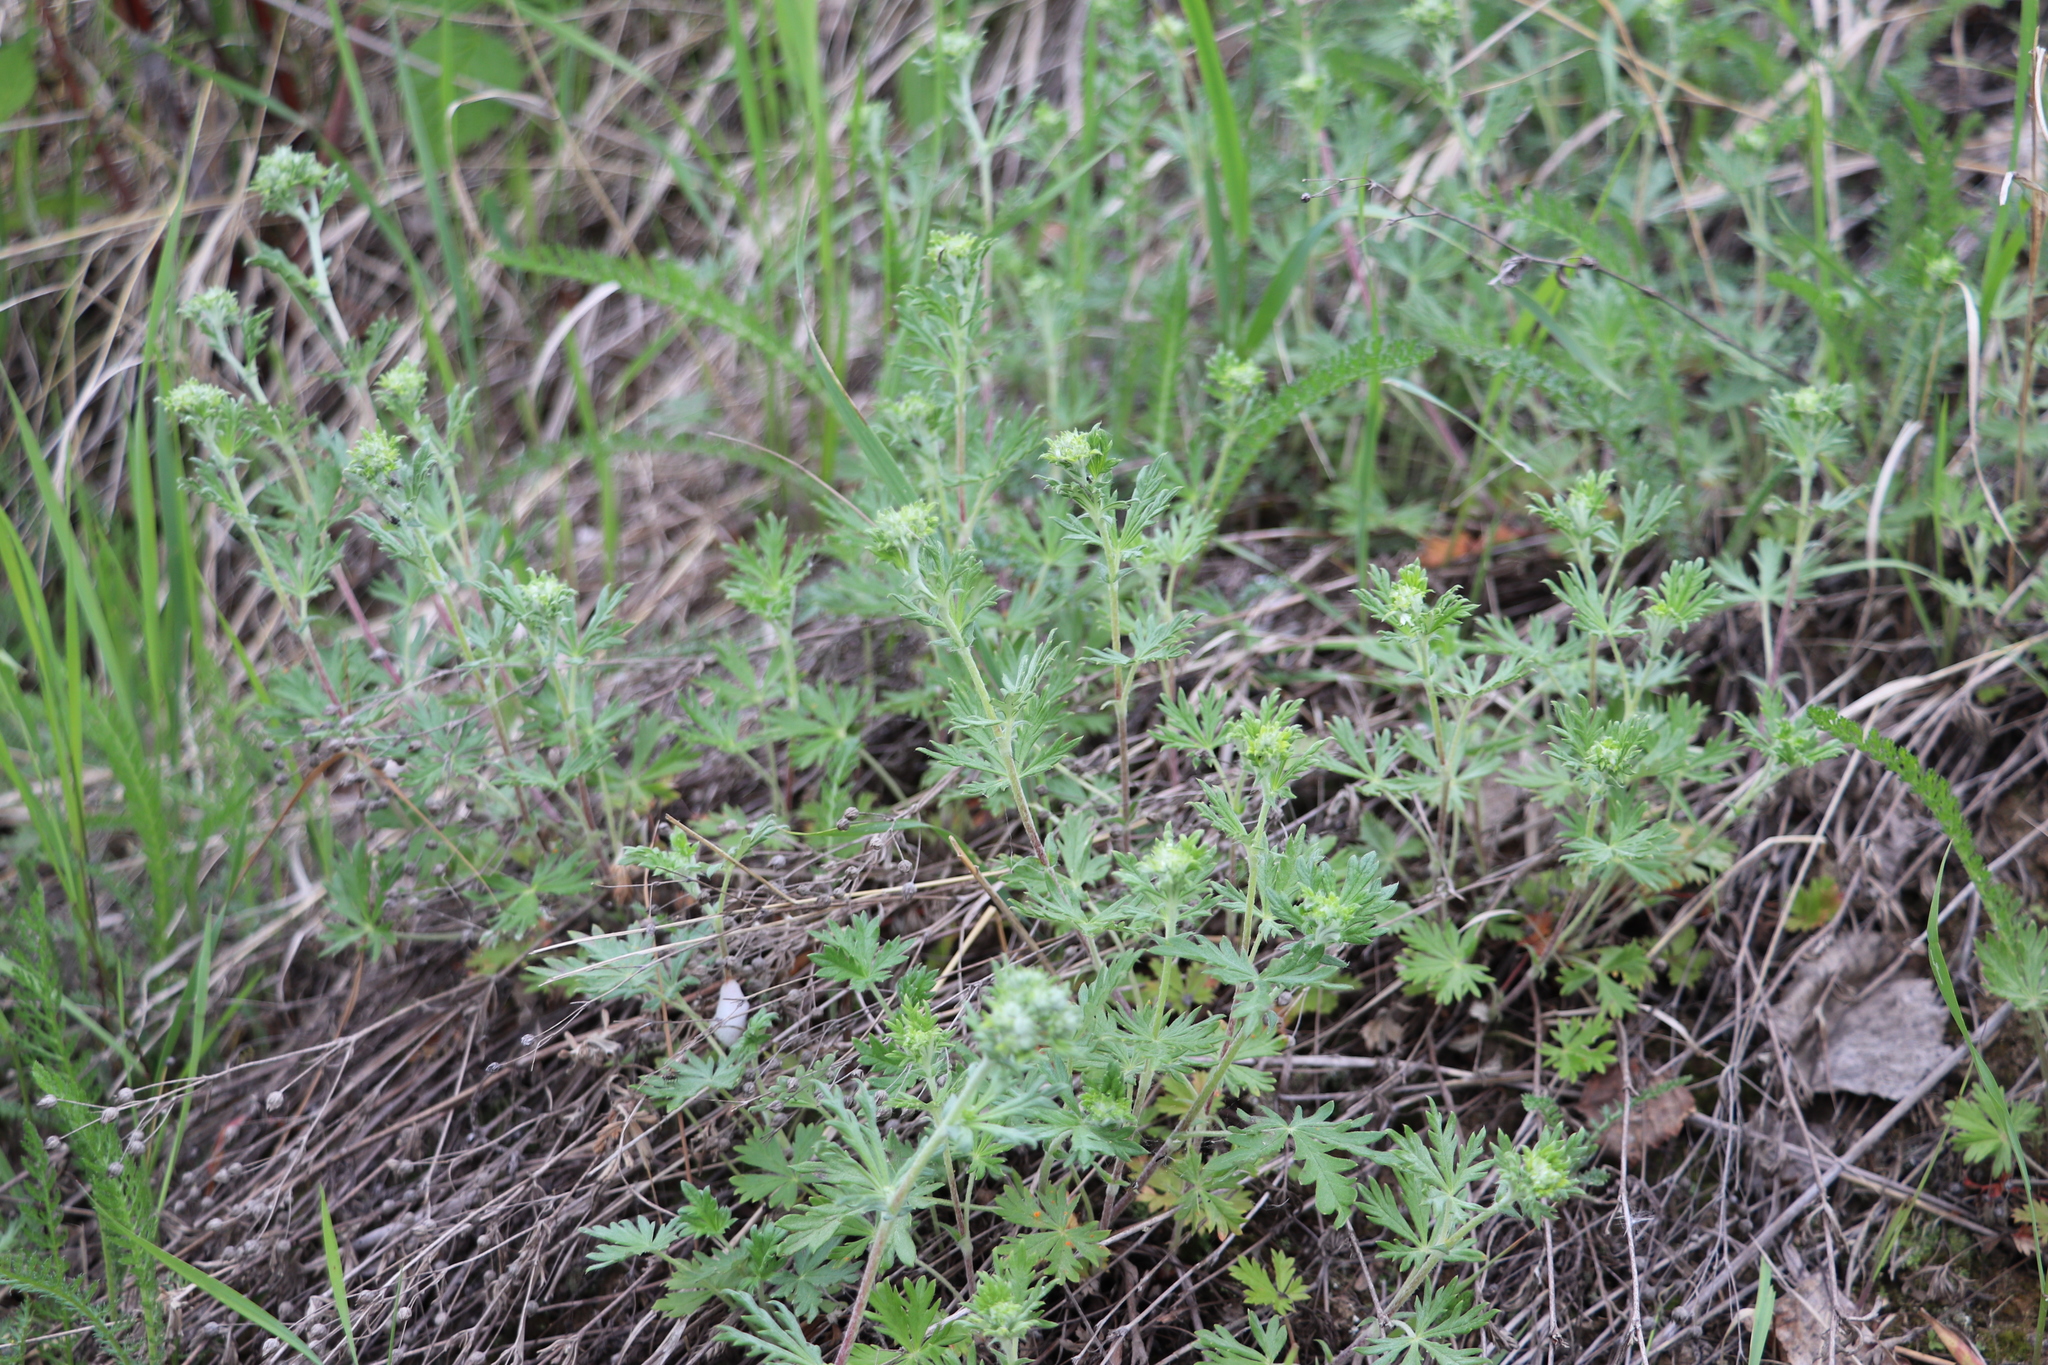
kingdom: Plantae
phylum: Tracheophyta
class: Magnoliopsida
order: Rosales
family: Rosaceae
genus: Potentilla
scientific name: Potentilla argentea
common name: Hoary cinquefoil
